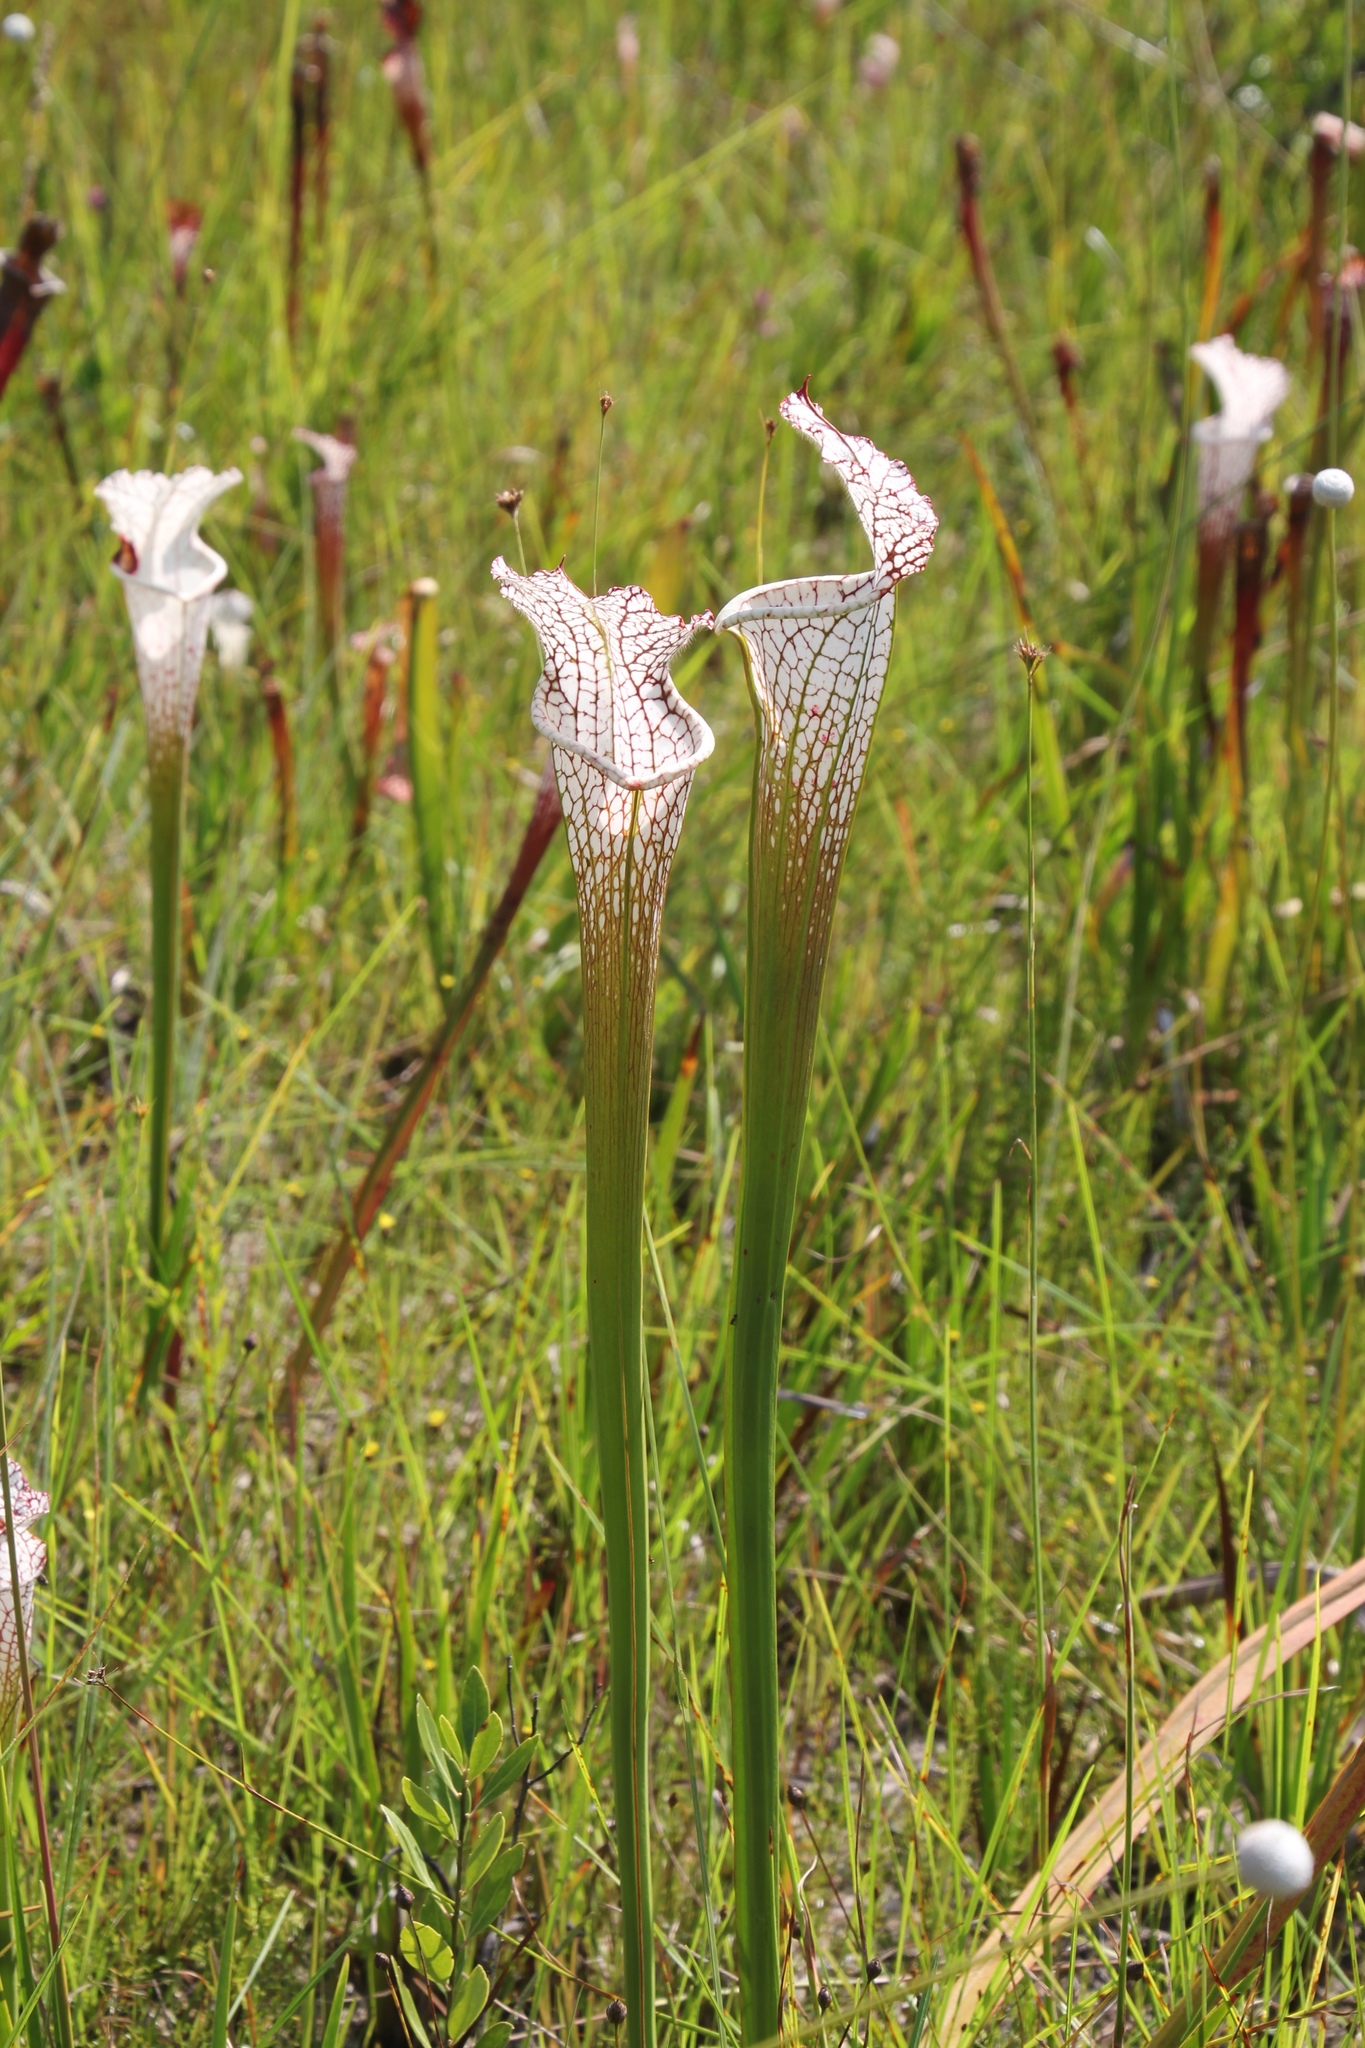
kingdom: Plantae
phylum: Tracheophyta
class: Magnoliopsida
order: Ericales
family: Sarraceniaceae
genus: Sarracenia
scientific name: Sarracenia leucophylla
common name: Purple trumpetleaf
